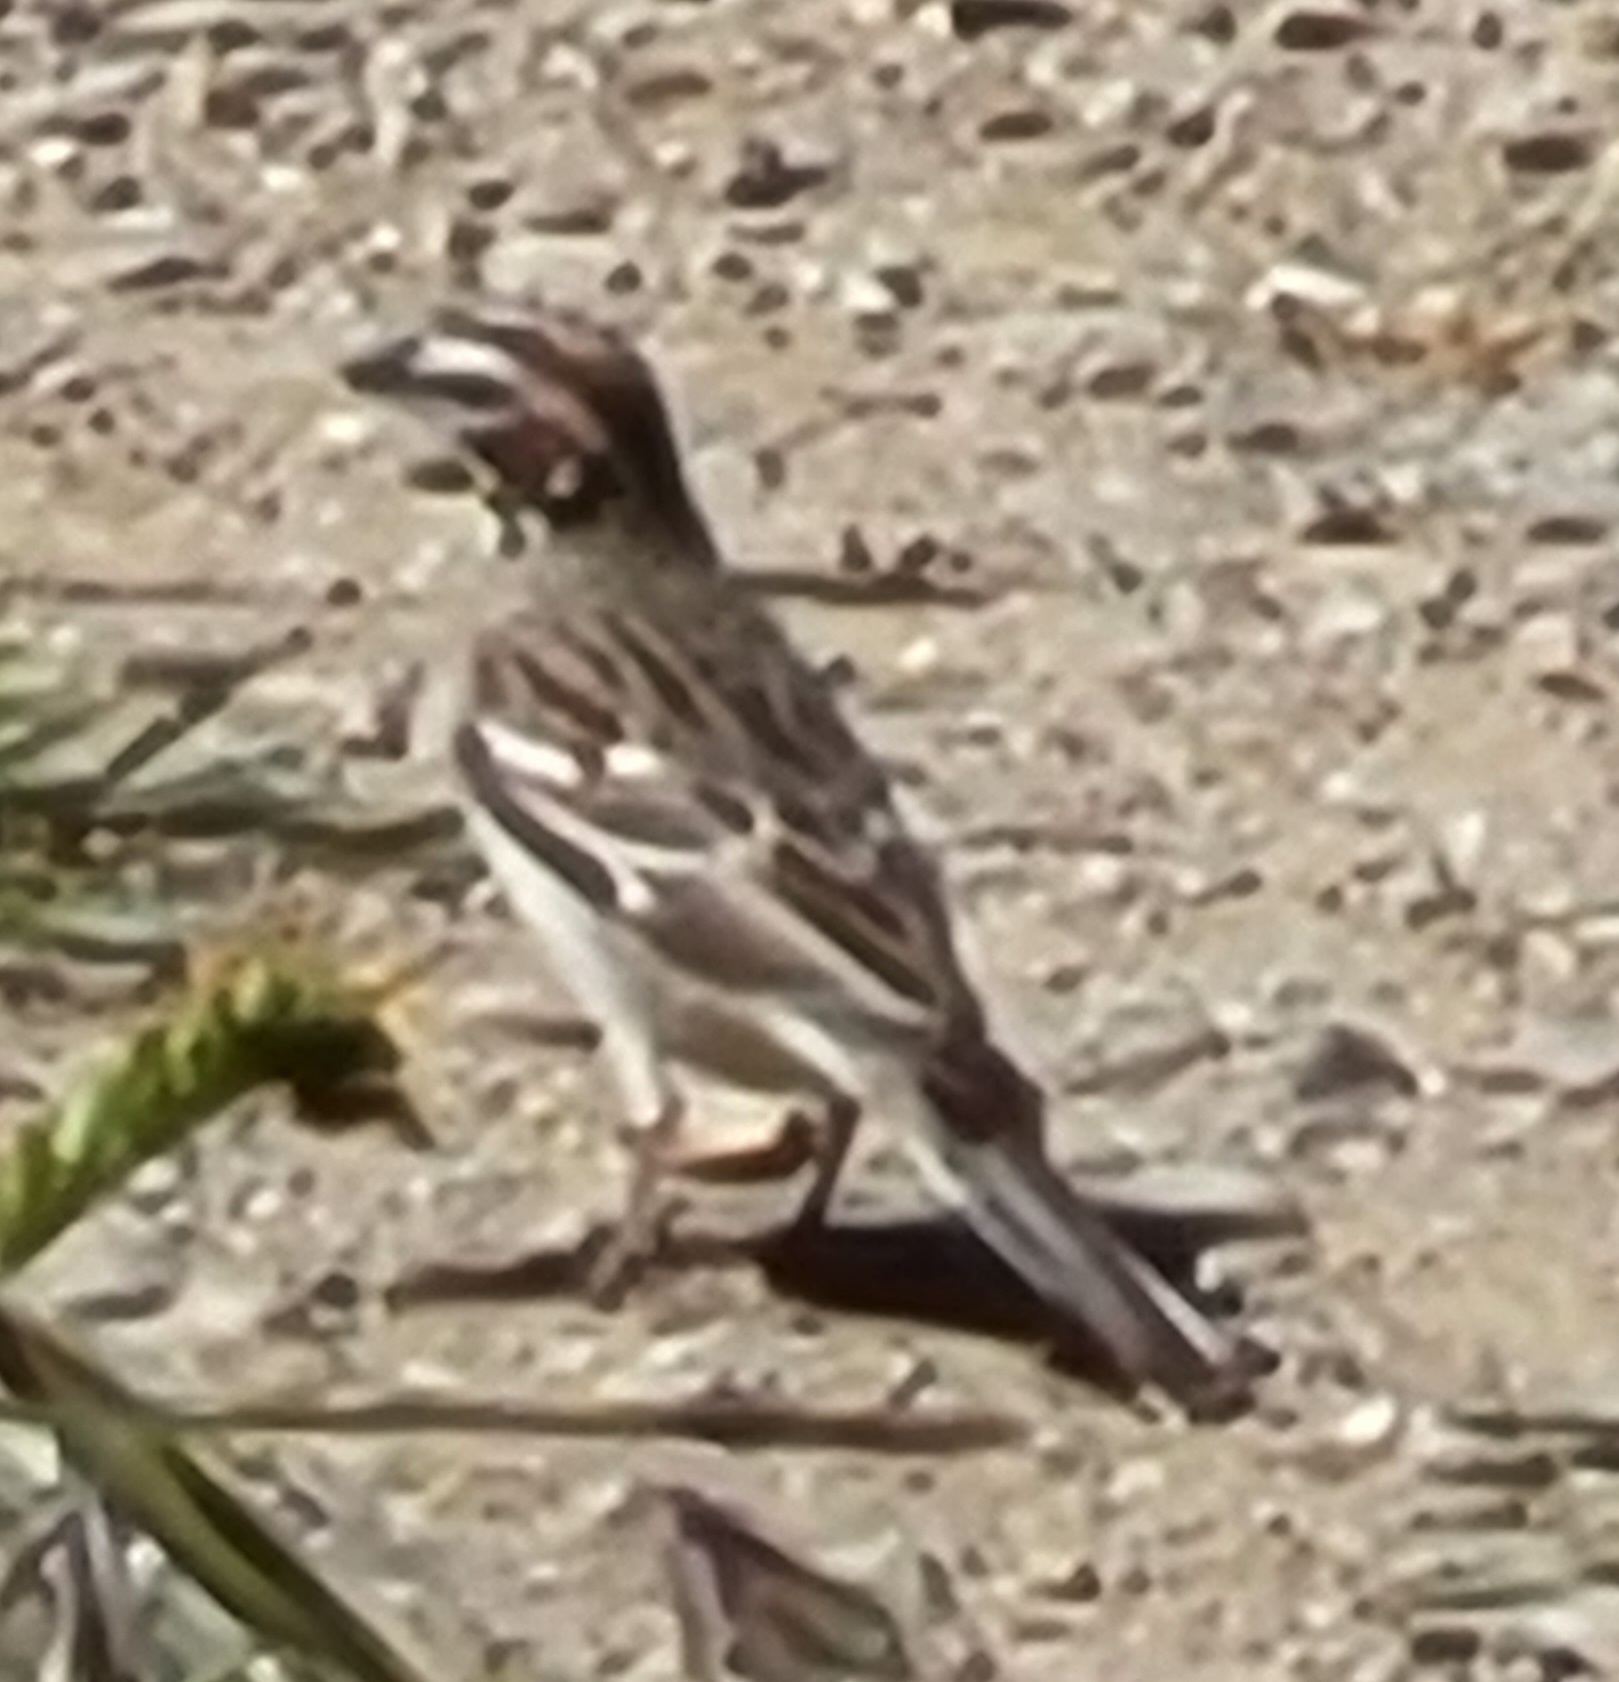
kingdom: Animalia
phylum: Chordata
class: Aves
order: Passeriformes
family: Passerellidae
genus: Chondestes
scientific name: Chondestes grammacus
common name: Lark sparrow
